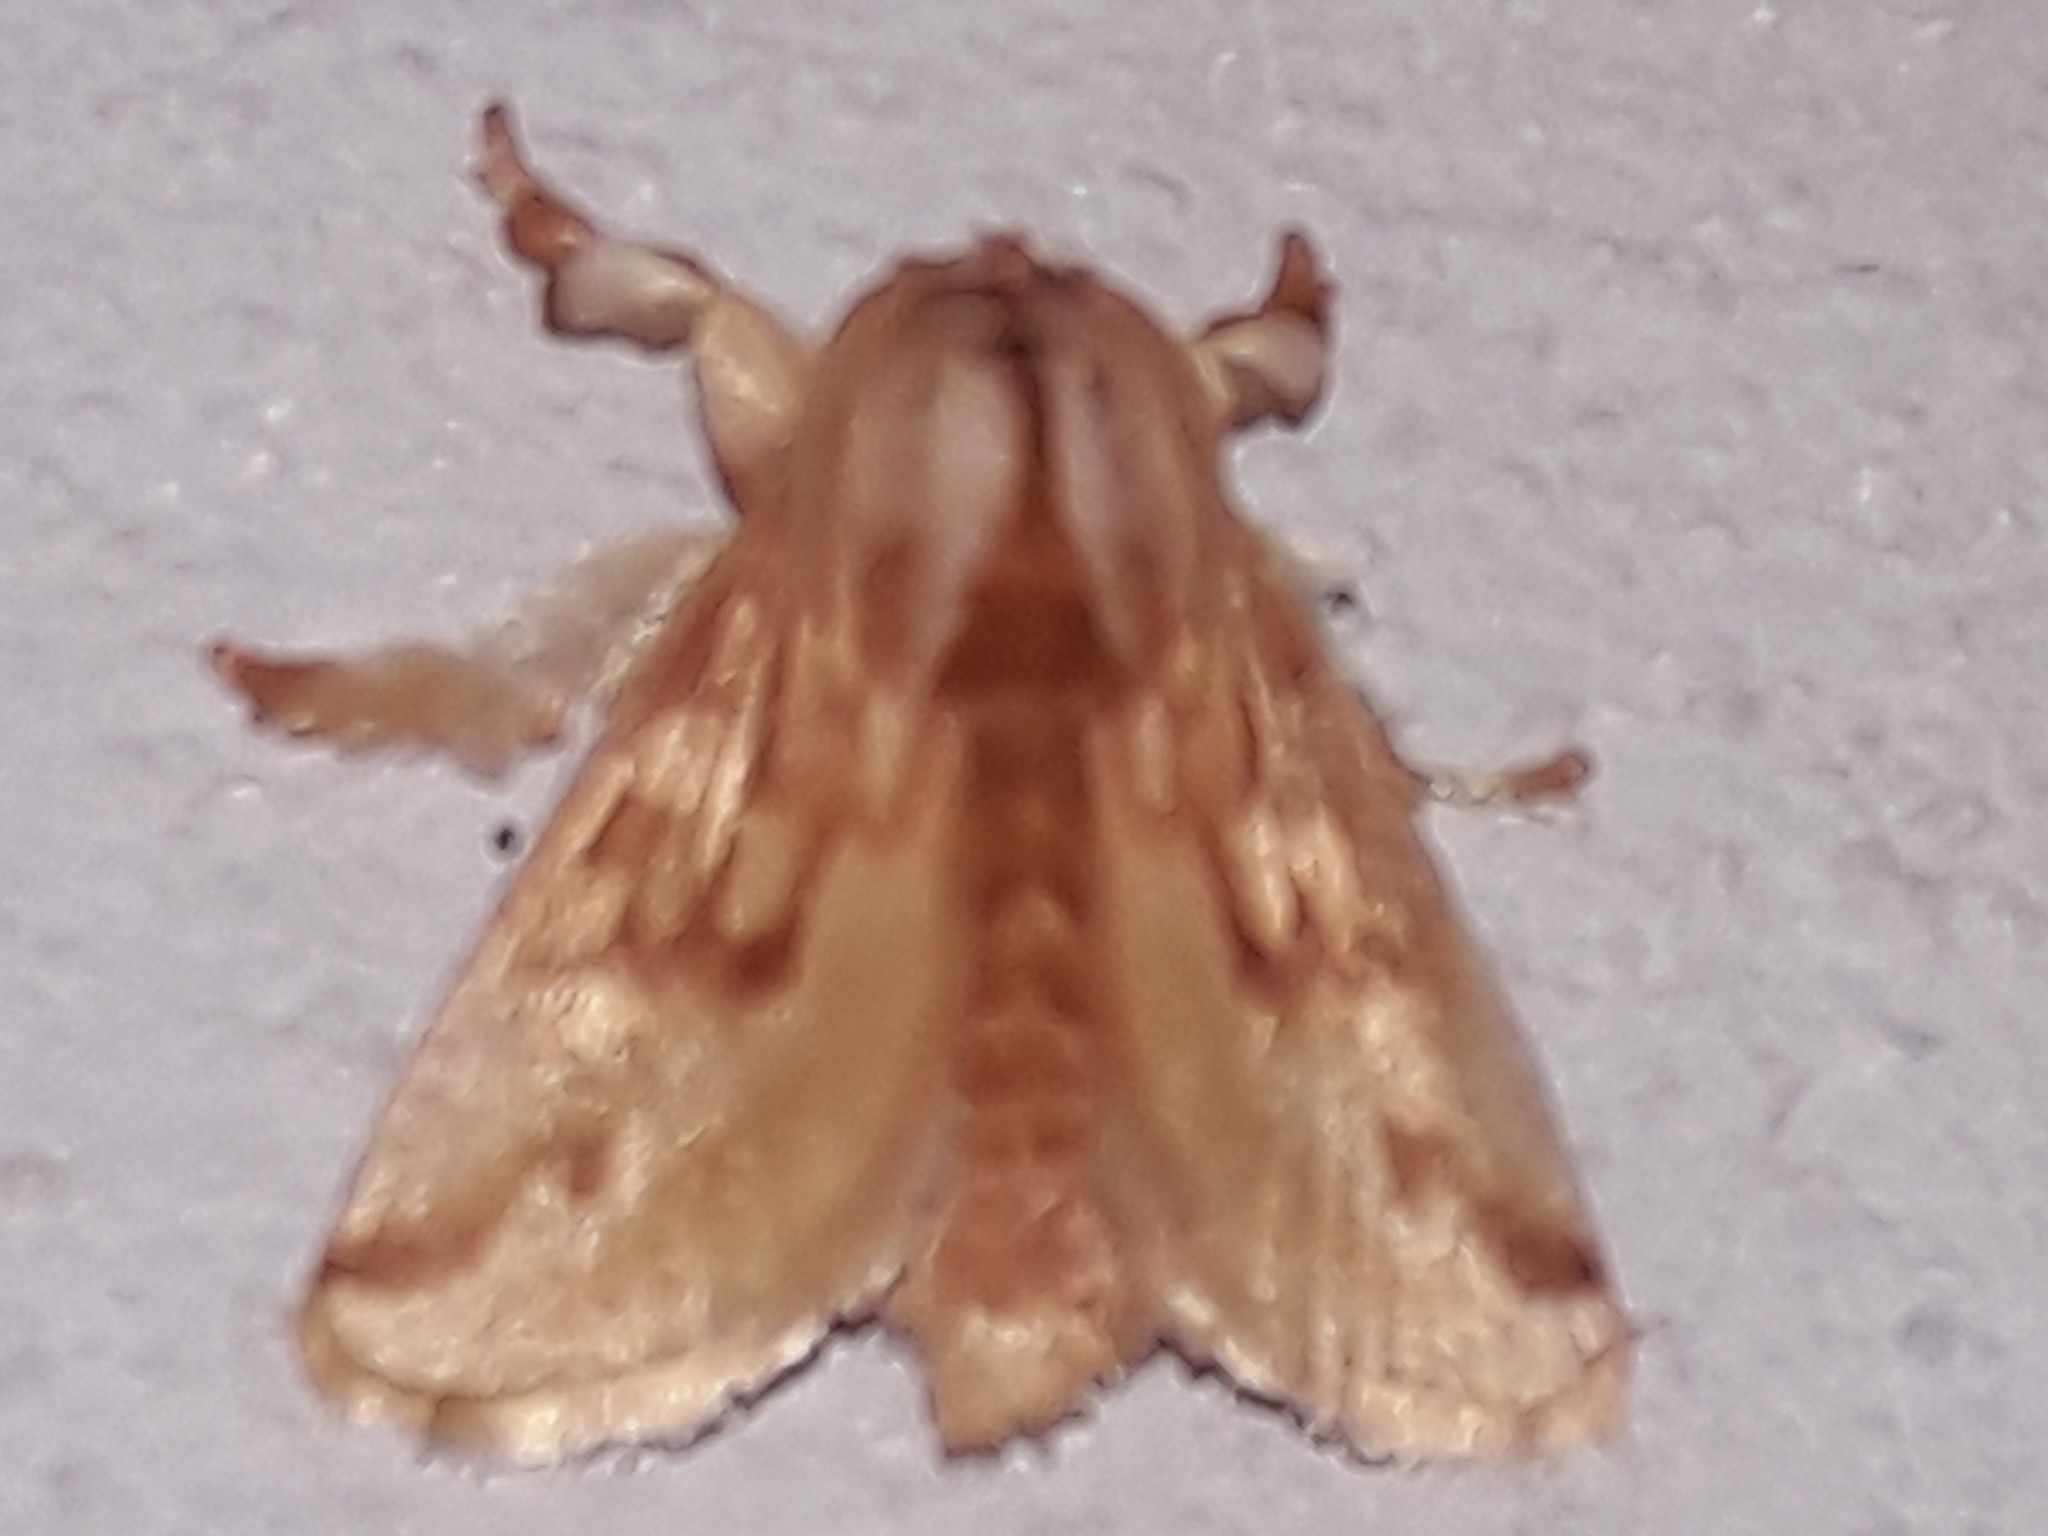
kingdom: Animalia
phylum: Arthropoda
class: Insecta
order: Lepidoptera
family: Limacodidae
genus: Perola
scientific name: Perola sericea
